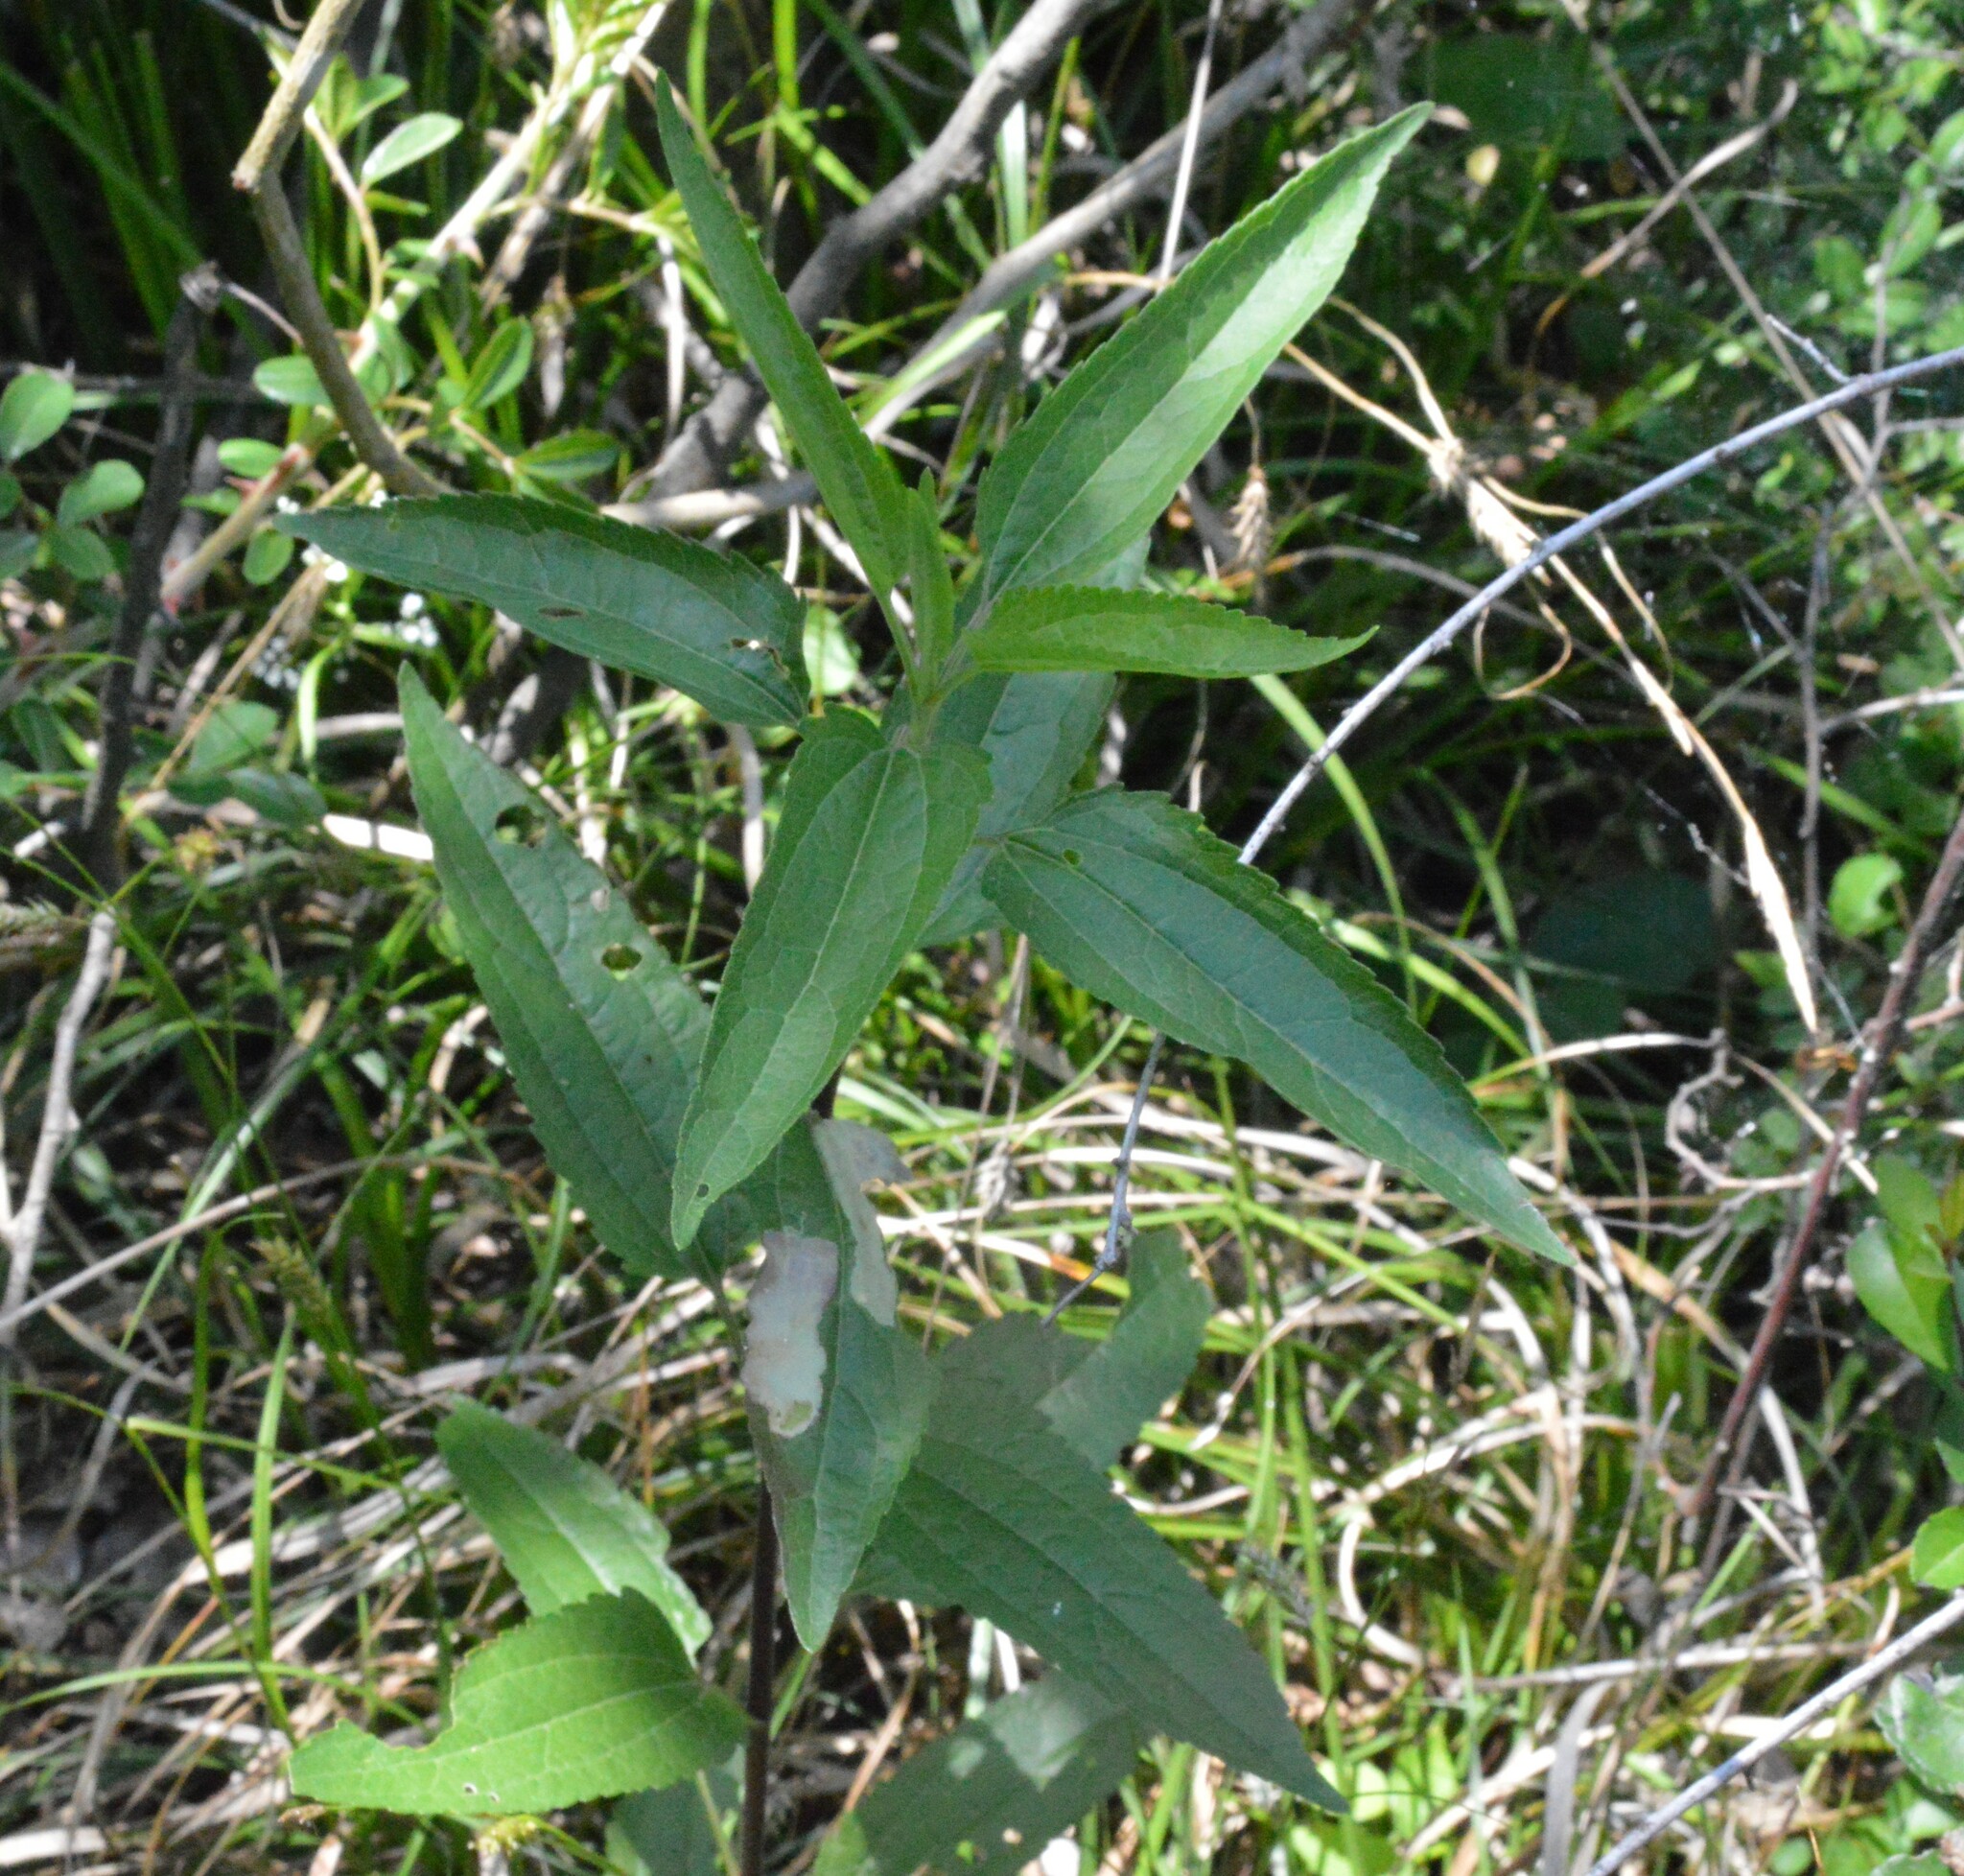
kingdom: Plantae
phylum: Tracheophyta
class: Magnoliopsida
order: Asterales
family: Asteraceae
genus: Eupatorium
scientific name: Eupatorium serotinum
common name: Late boneset
